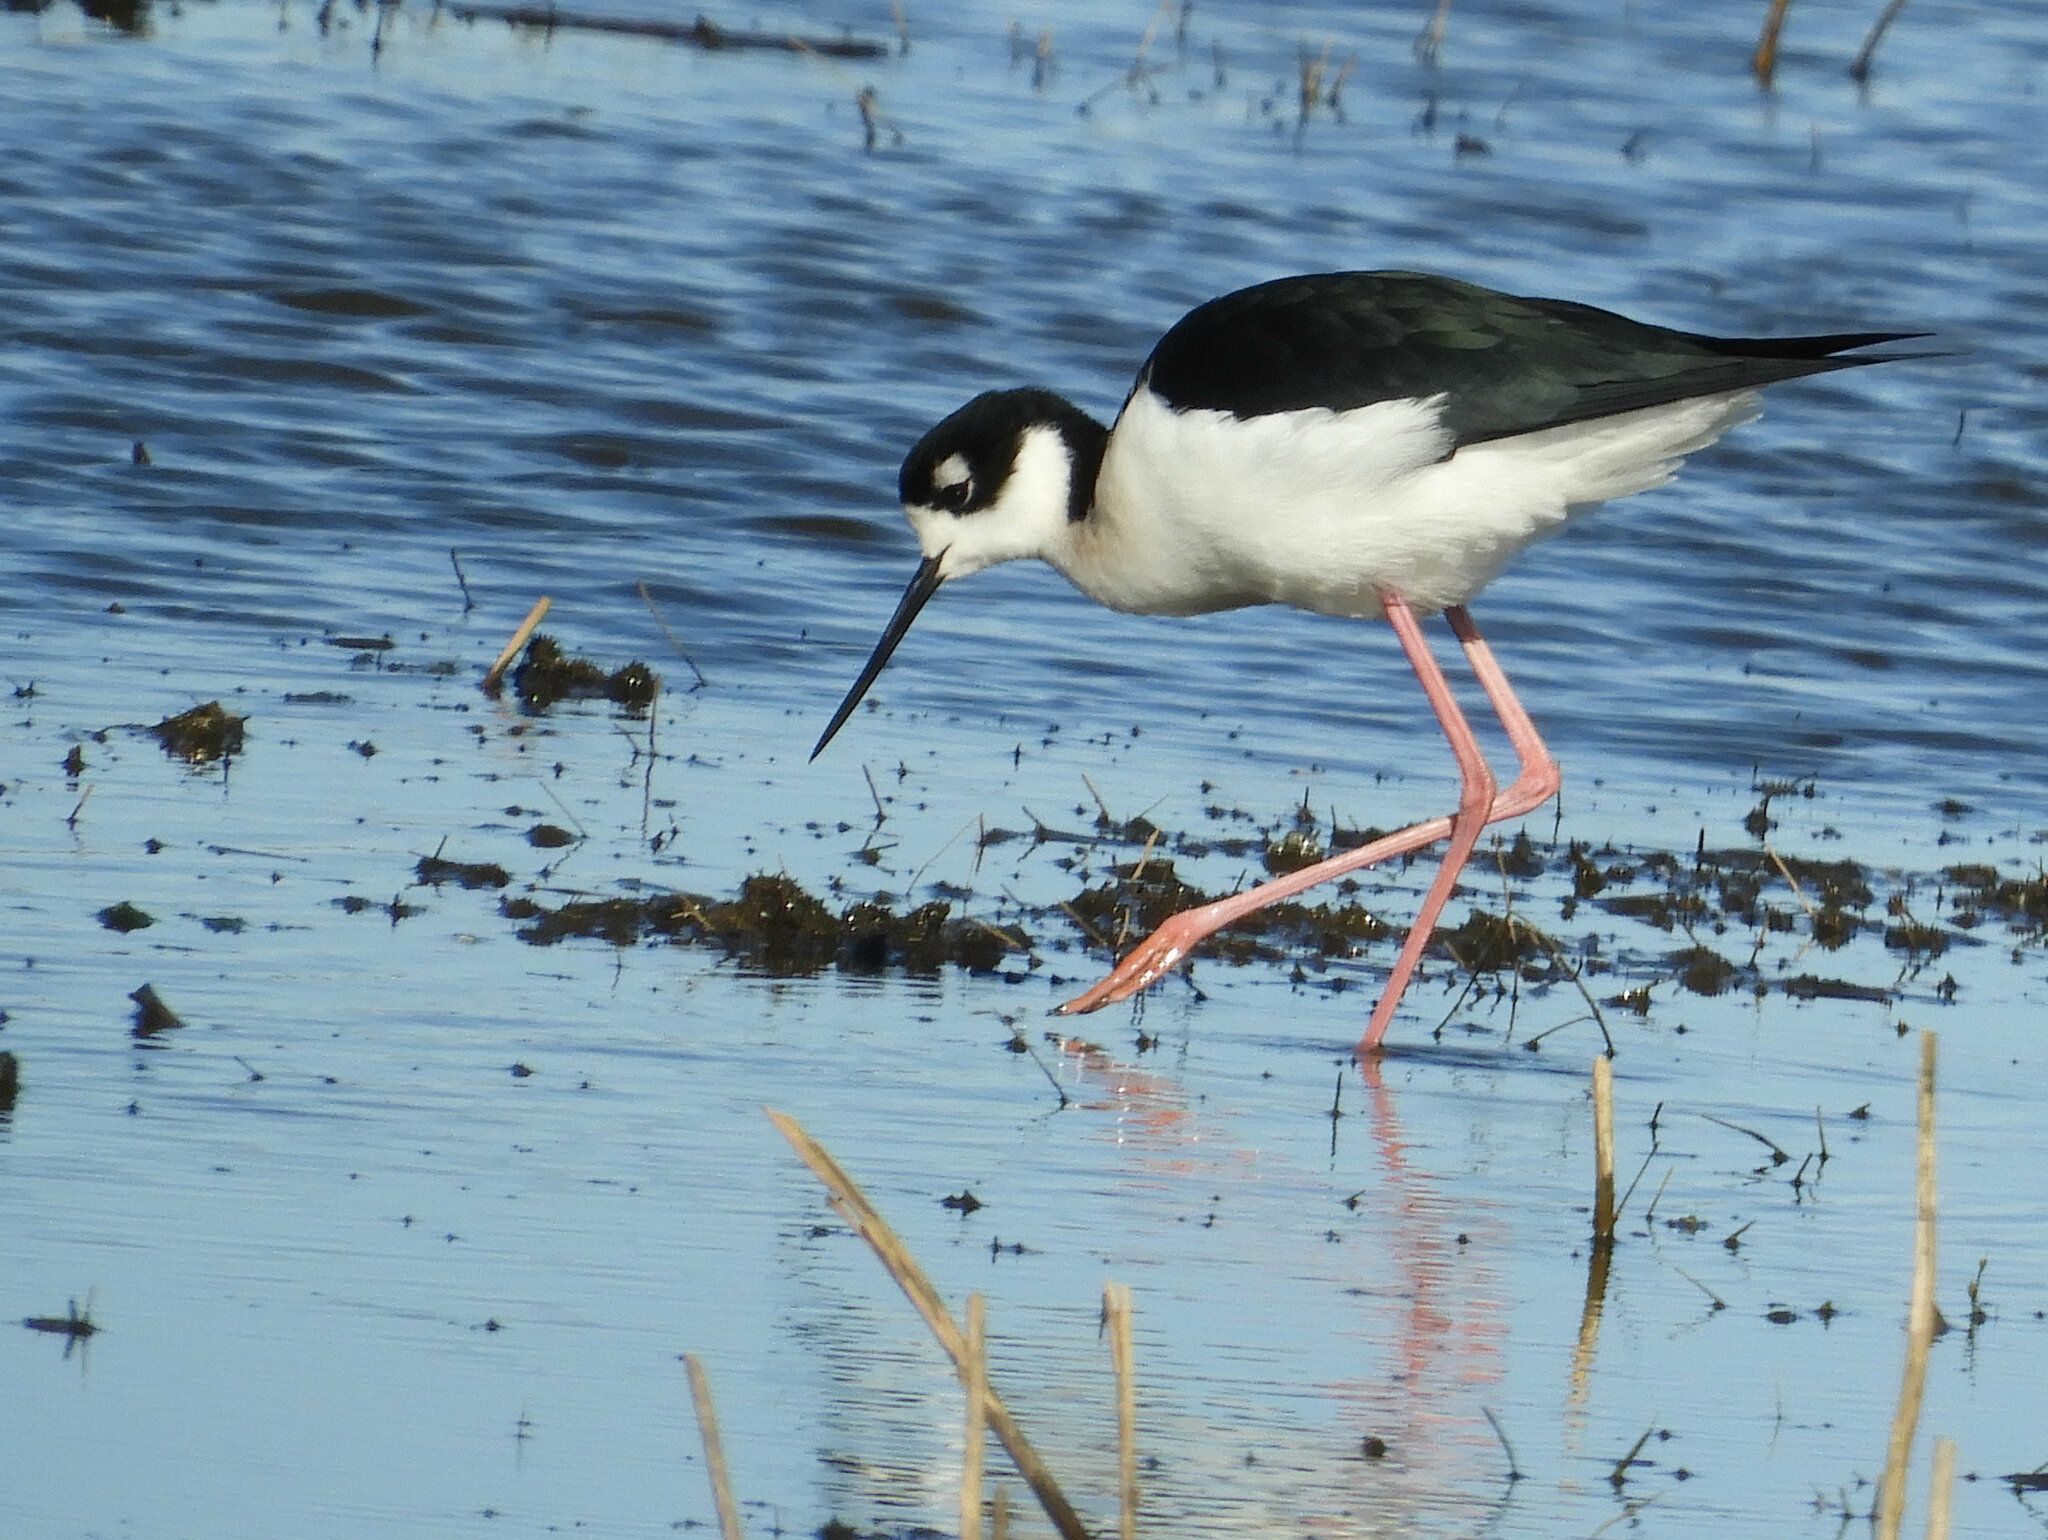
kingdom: Animalia
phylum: Chordata
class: Aves
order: Charadriiformes
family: Recurvirostridae
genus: Himantopus
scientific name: Himantopus mexicanus
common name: Black-necked stilt
